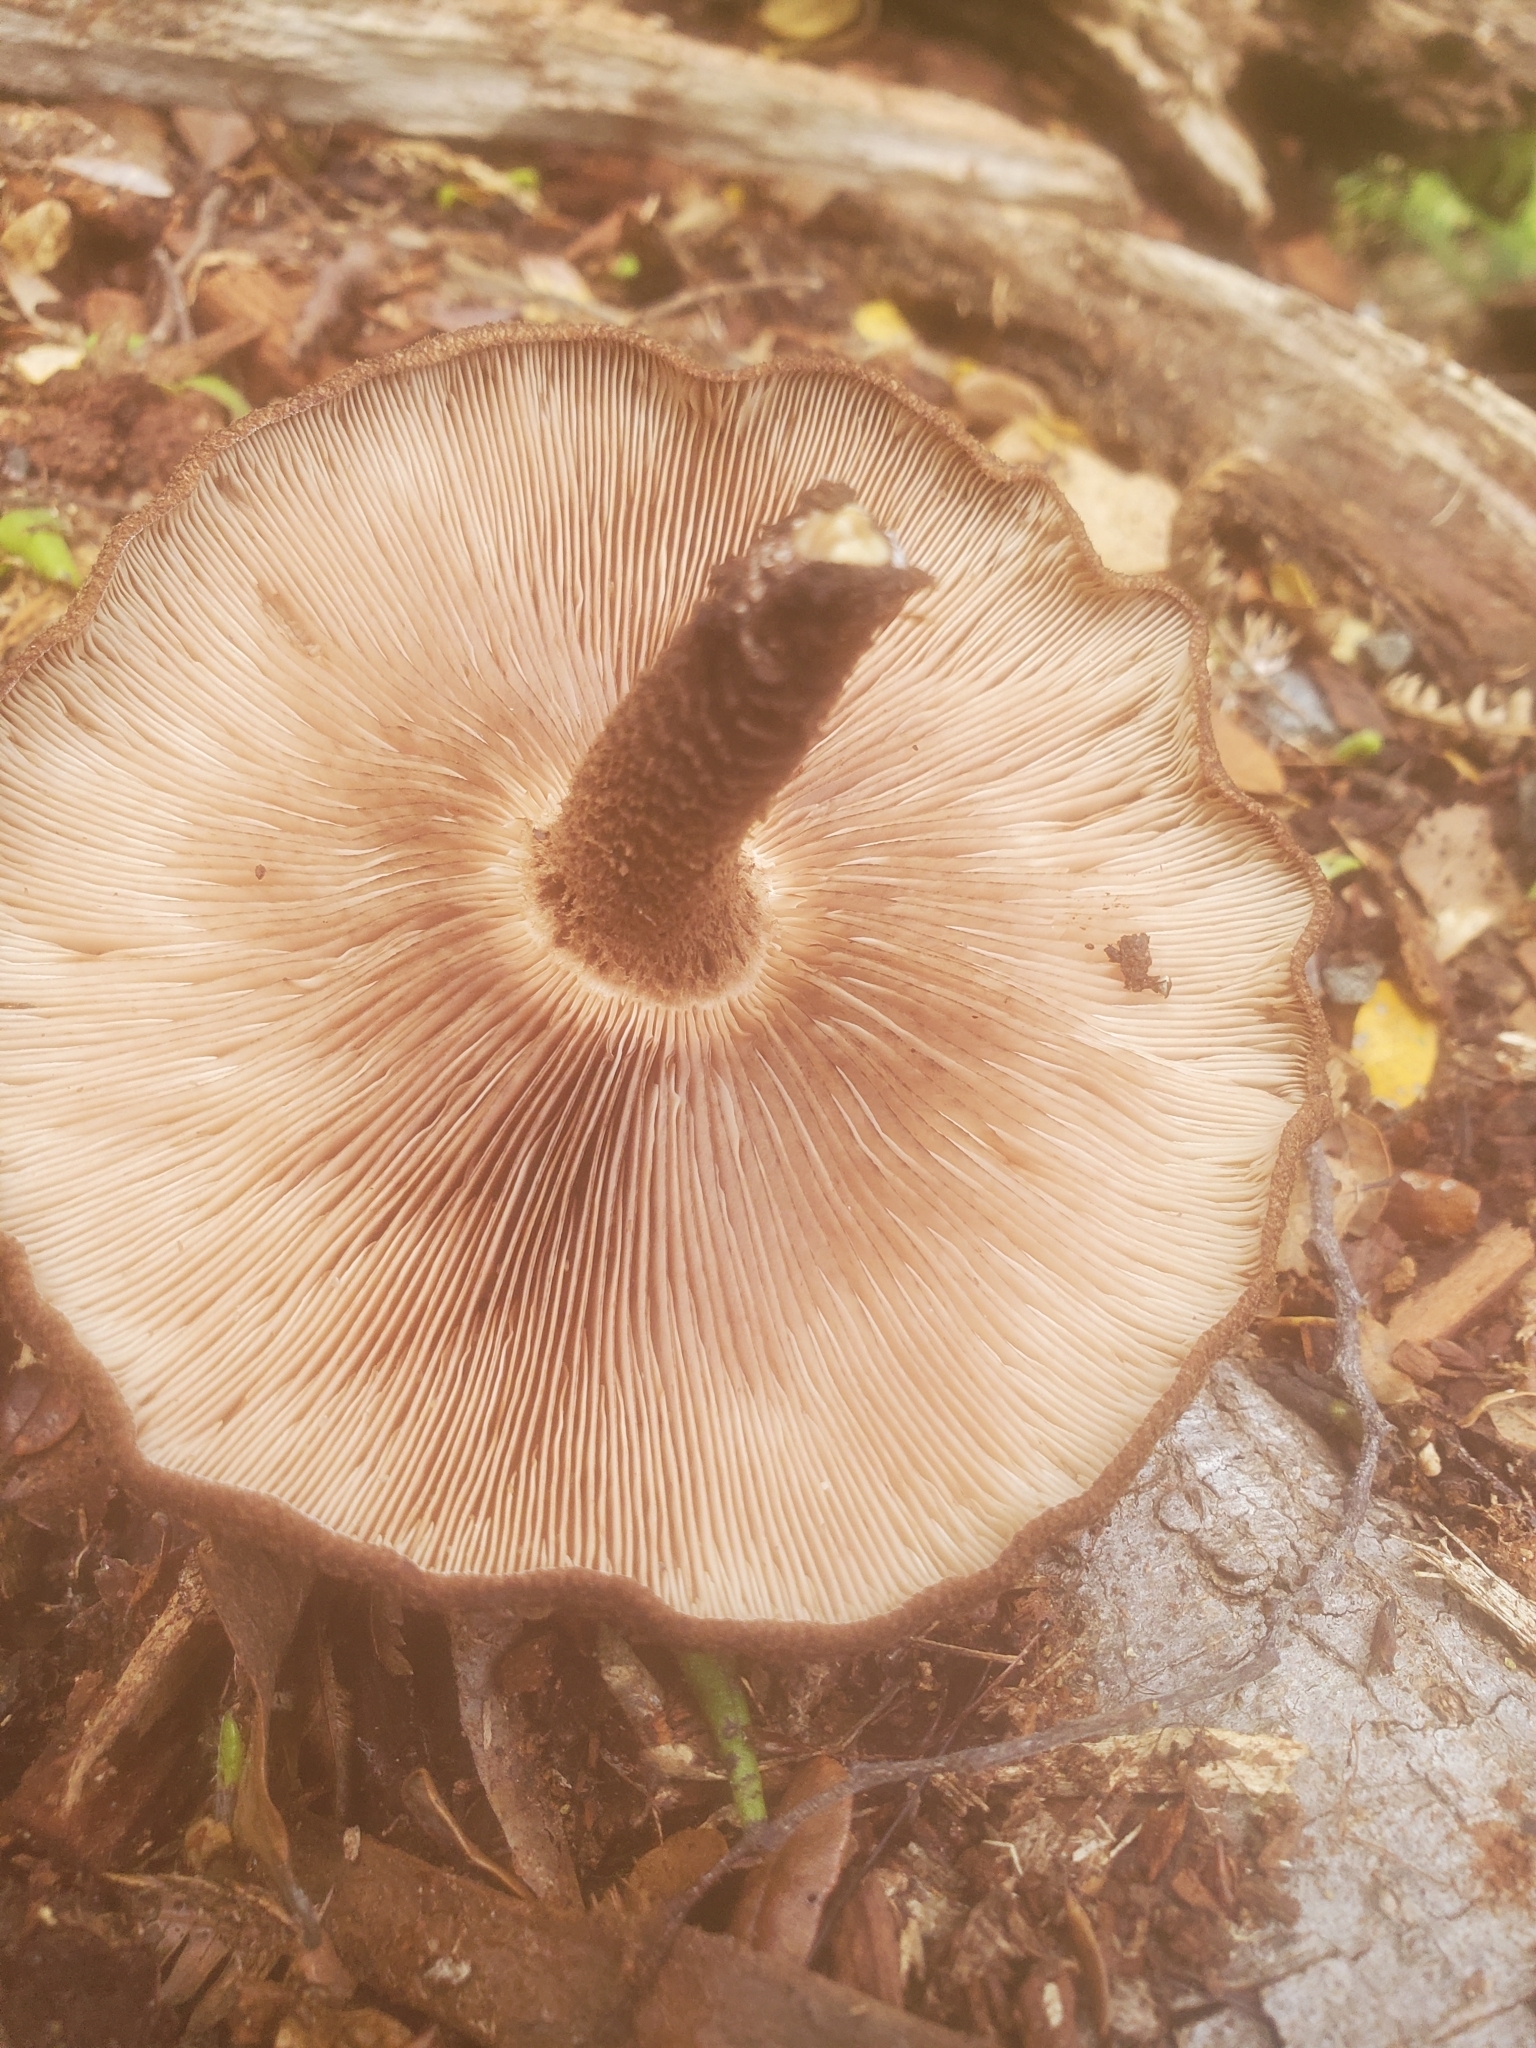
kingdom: Fungi
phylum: Basidiomycota
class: Agaricomycetes
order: Agaricales
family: Omphalotaceae
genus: Lentinula
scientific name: Lentinula novae-zelandiae
